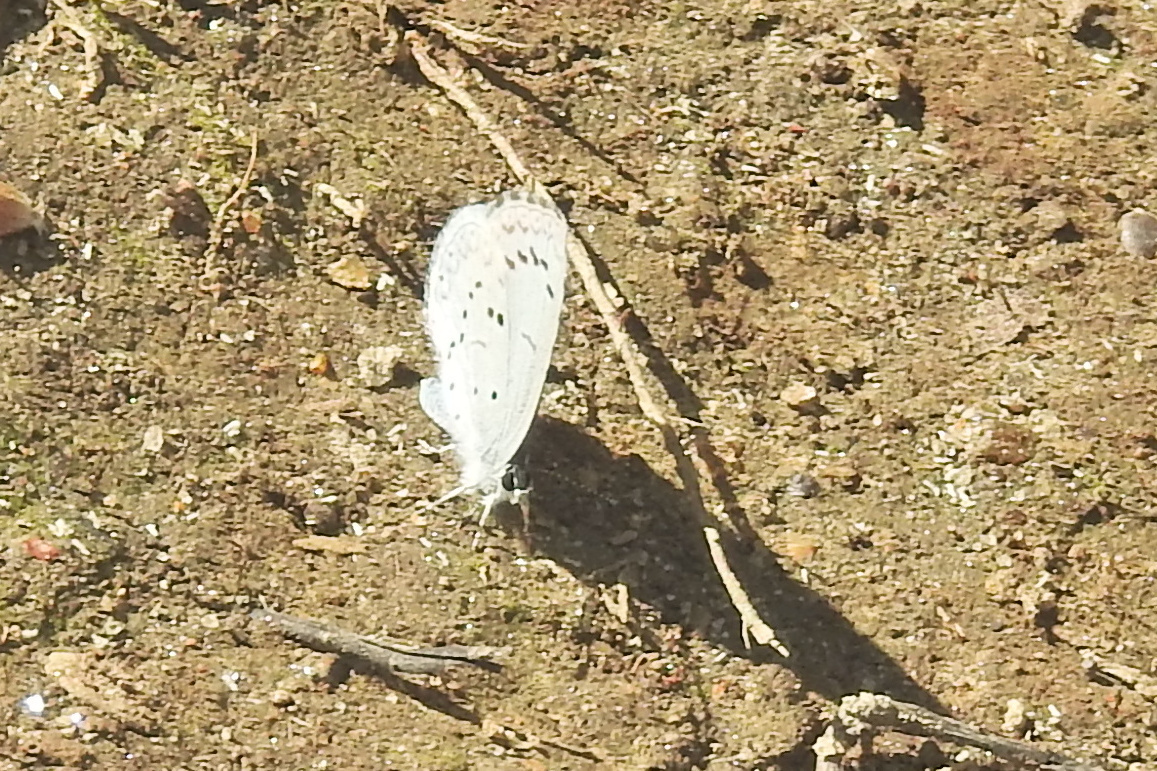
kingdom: Animalia
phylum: Arthropoda
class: Insecta
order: Lepidoptera
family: Lycaenidae
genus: Celastrina
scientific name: Celastrina ladon
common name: Spring azure
